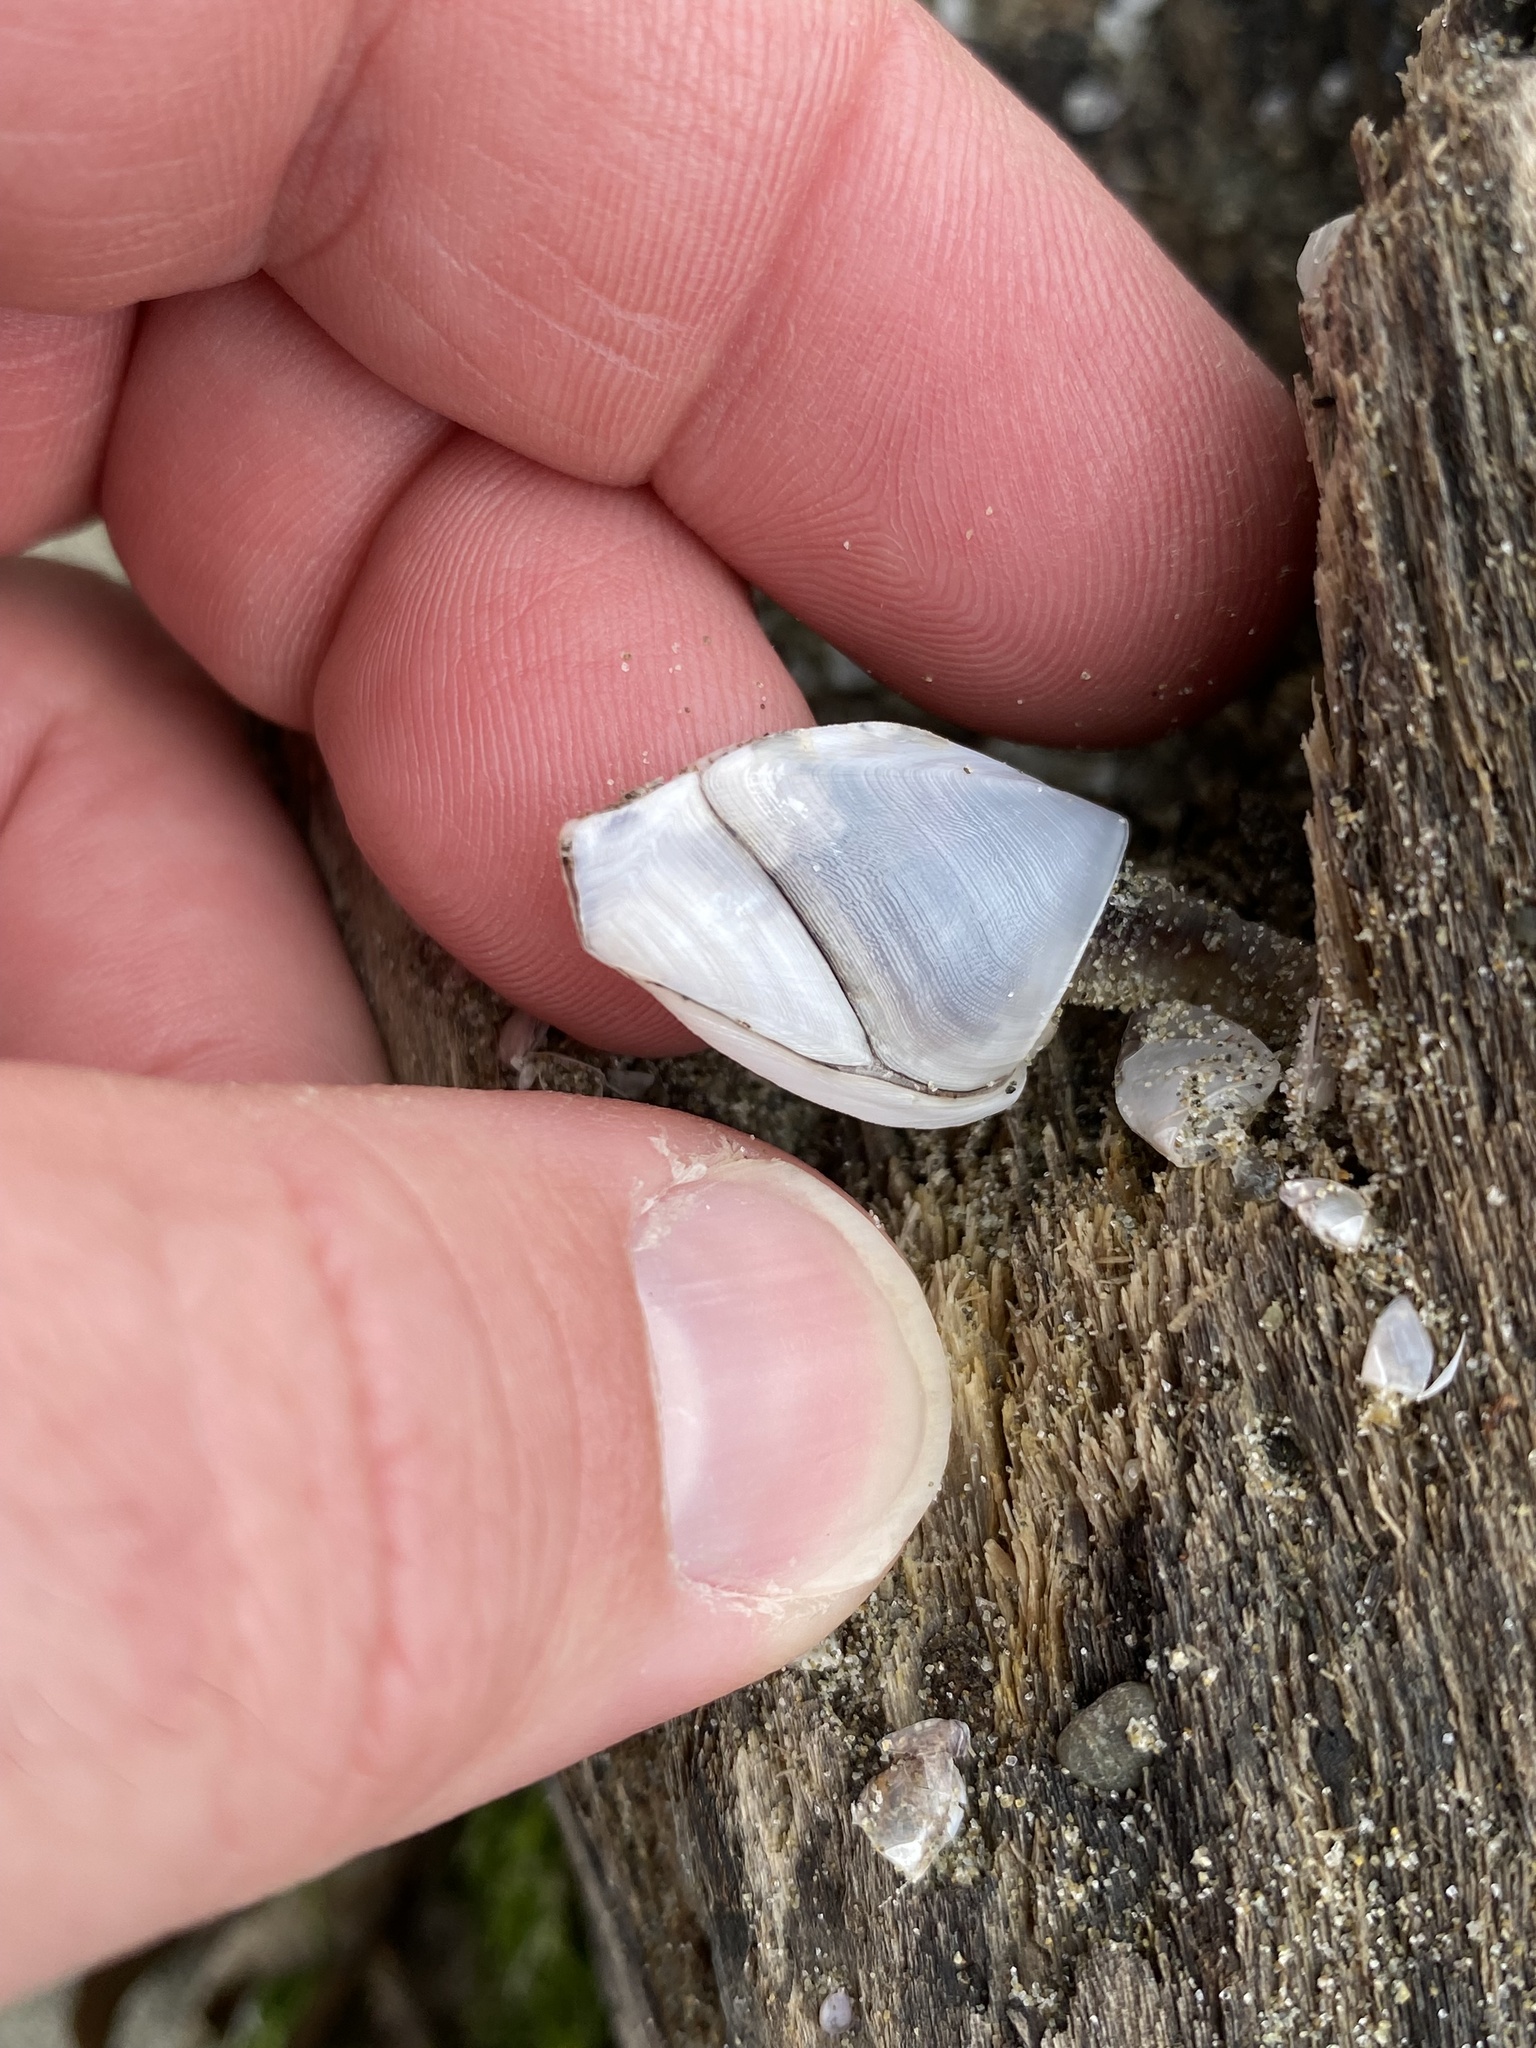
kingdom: Animalia
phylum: Arthropoda
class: Maxillopoda
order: Pedunculata
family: Lepadidae
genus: Lepas
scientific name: Lepas australis
